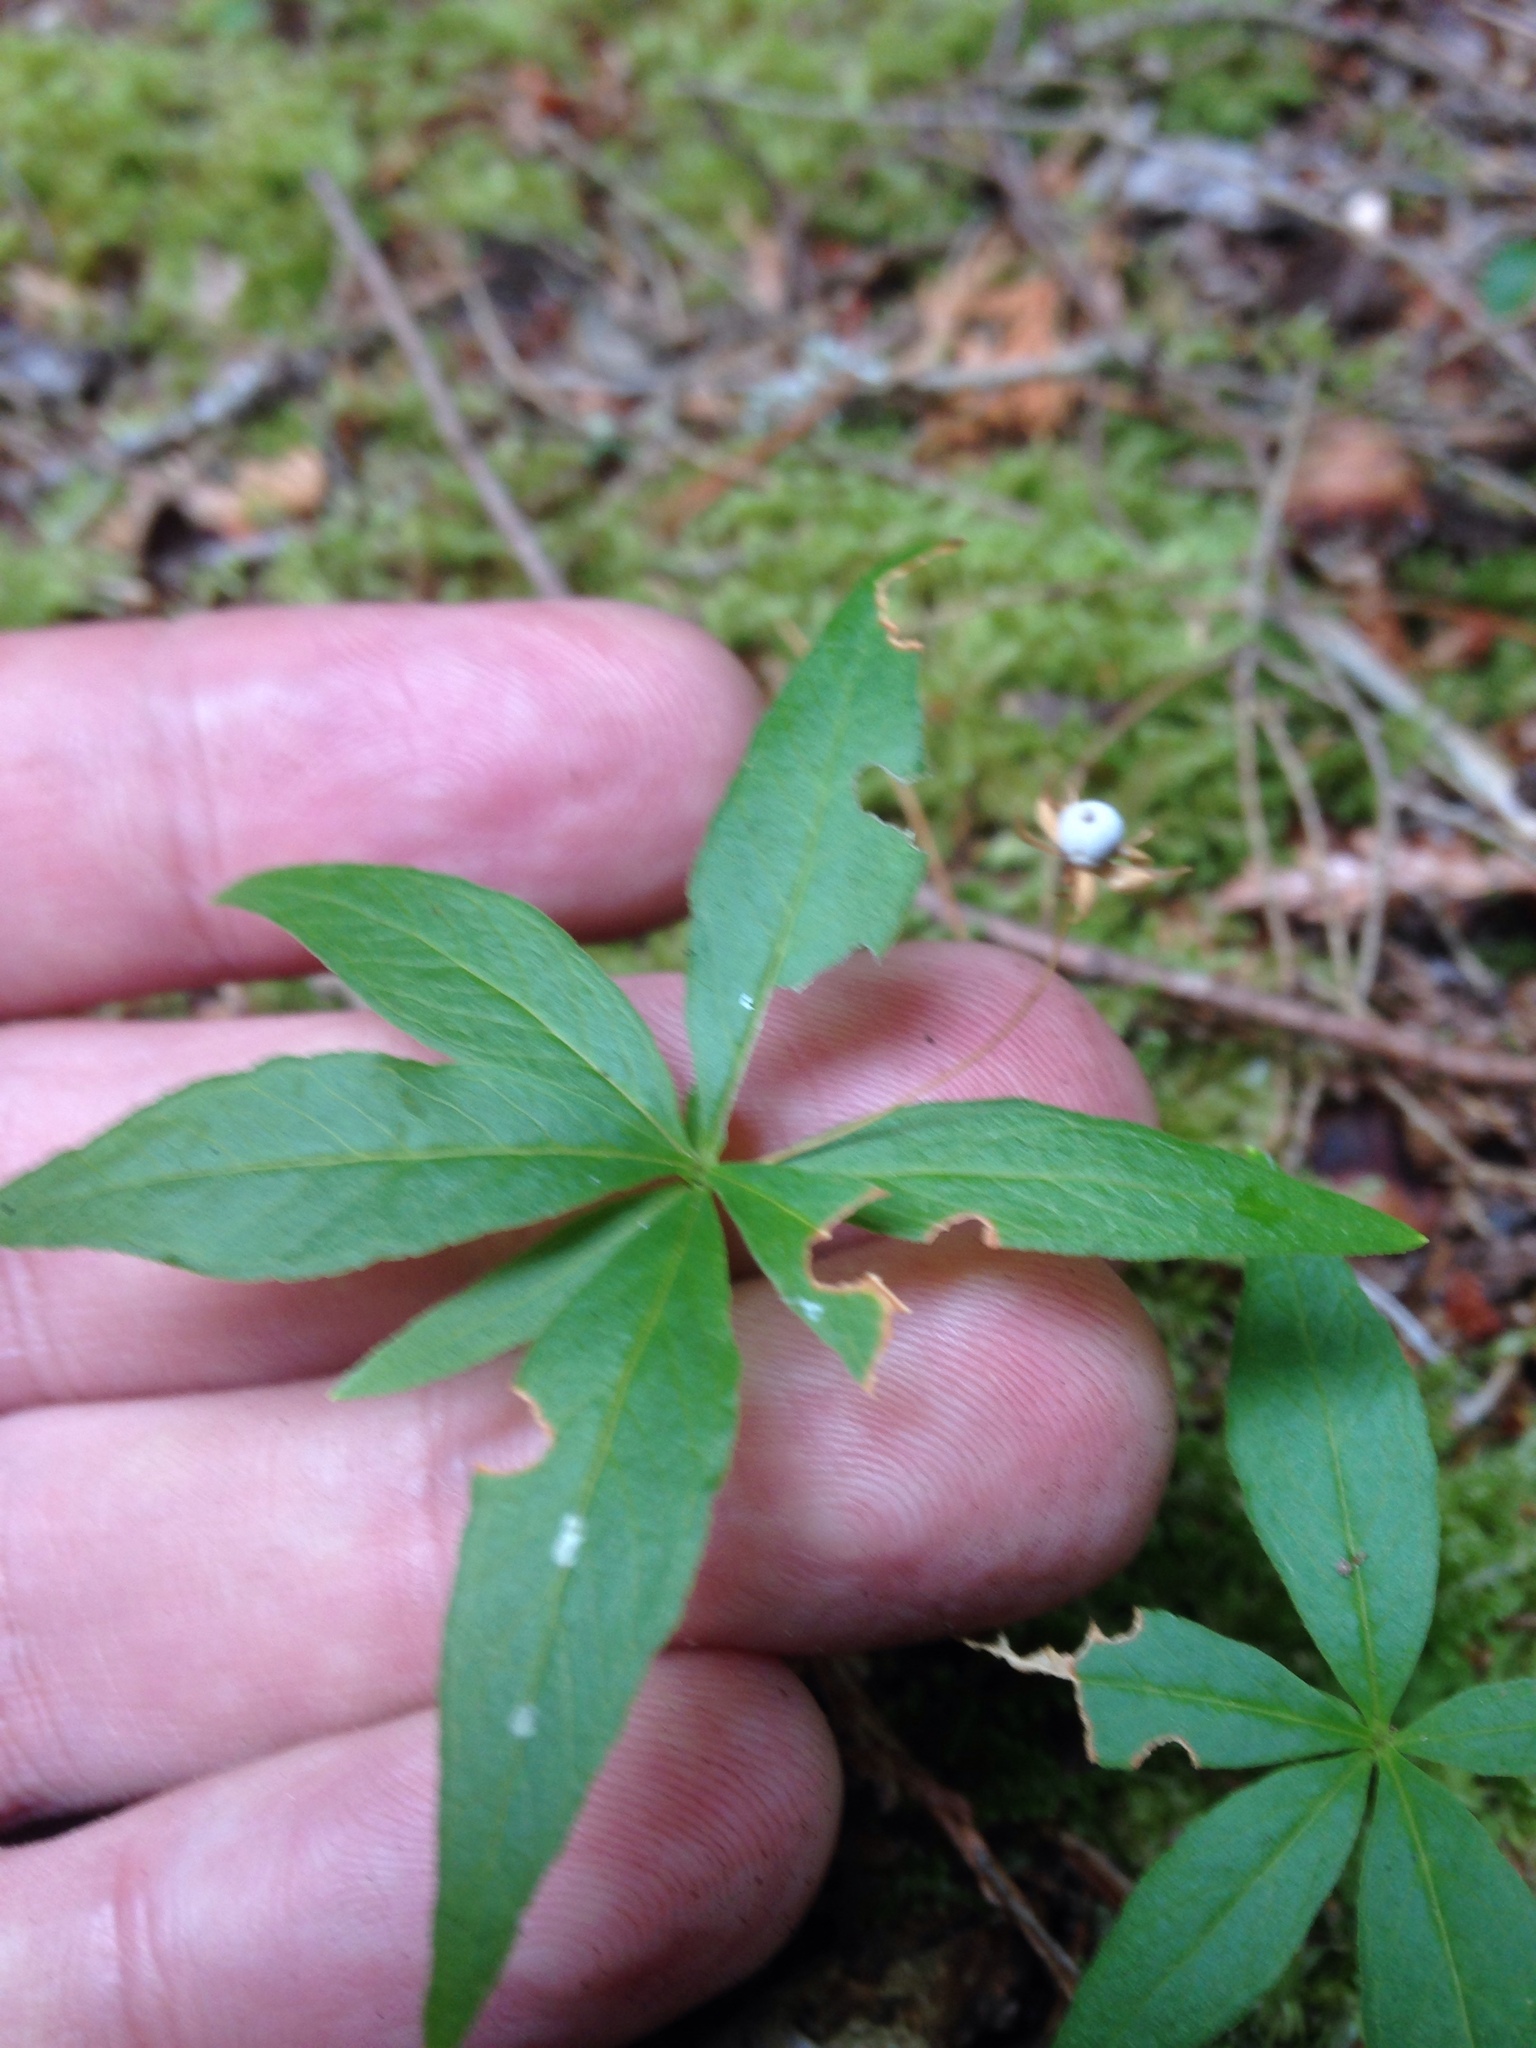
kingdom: Plantae
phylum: Tracheophyta
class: Magnoliopsida
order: Ericales
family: Primulaceae
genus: Lysimachia
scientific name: Lysimachia borealis
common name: American starflower
